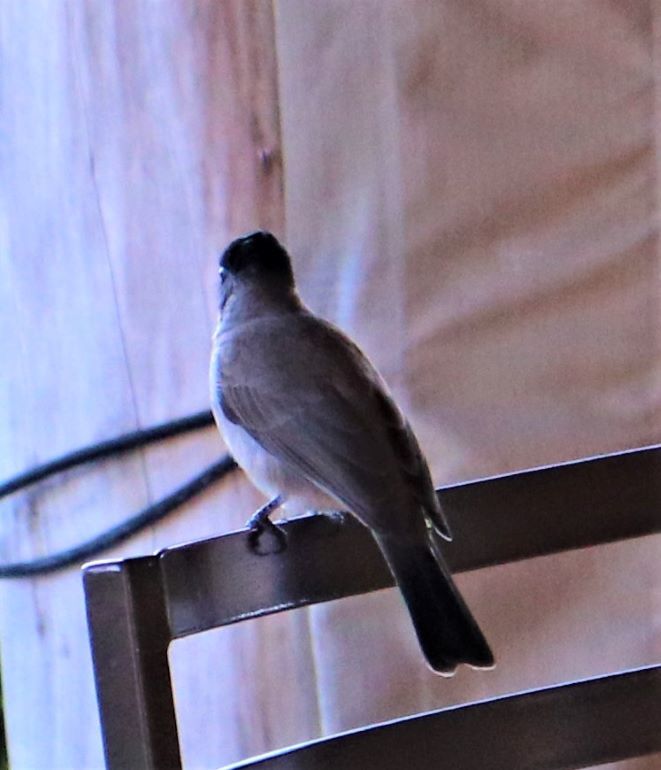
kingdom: Animalia
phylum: Chordata
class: Aves
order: Passeriformes
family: Pycnonotidae
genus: Pycnonotus
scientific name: Pycnonotus barbatus
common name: Common bulbul
